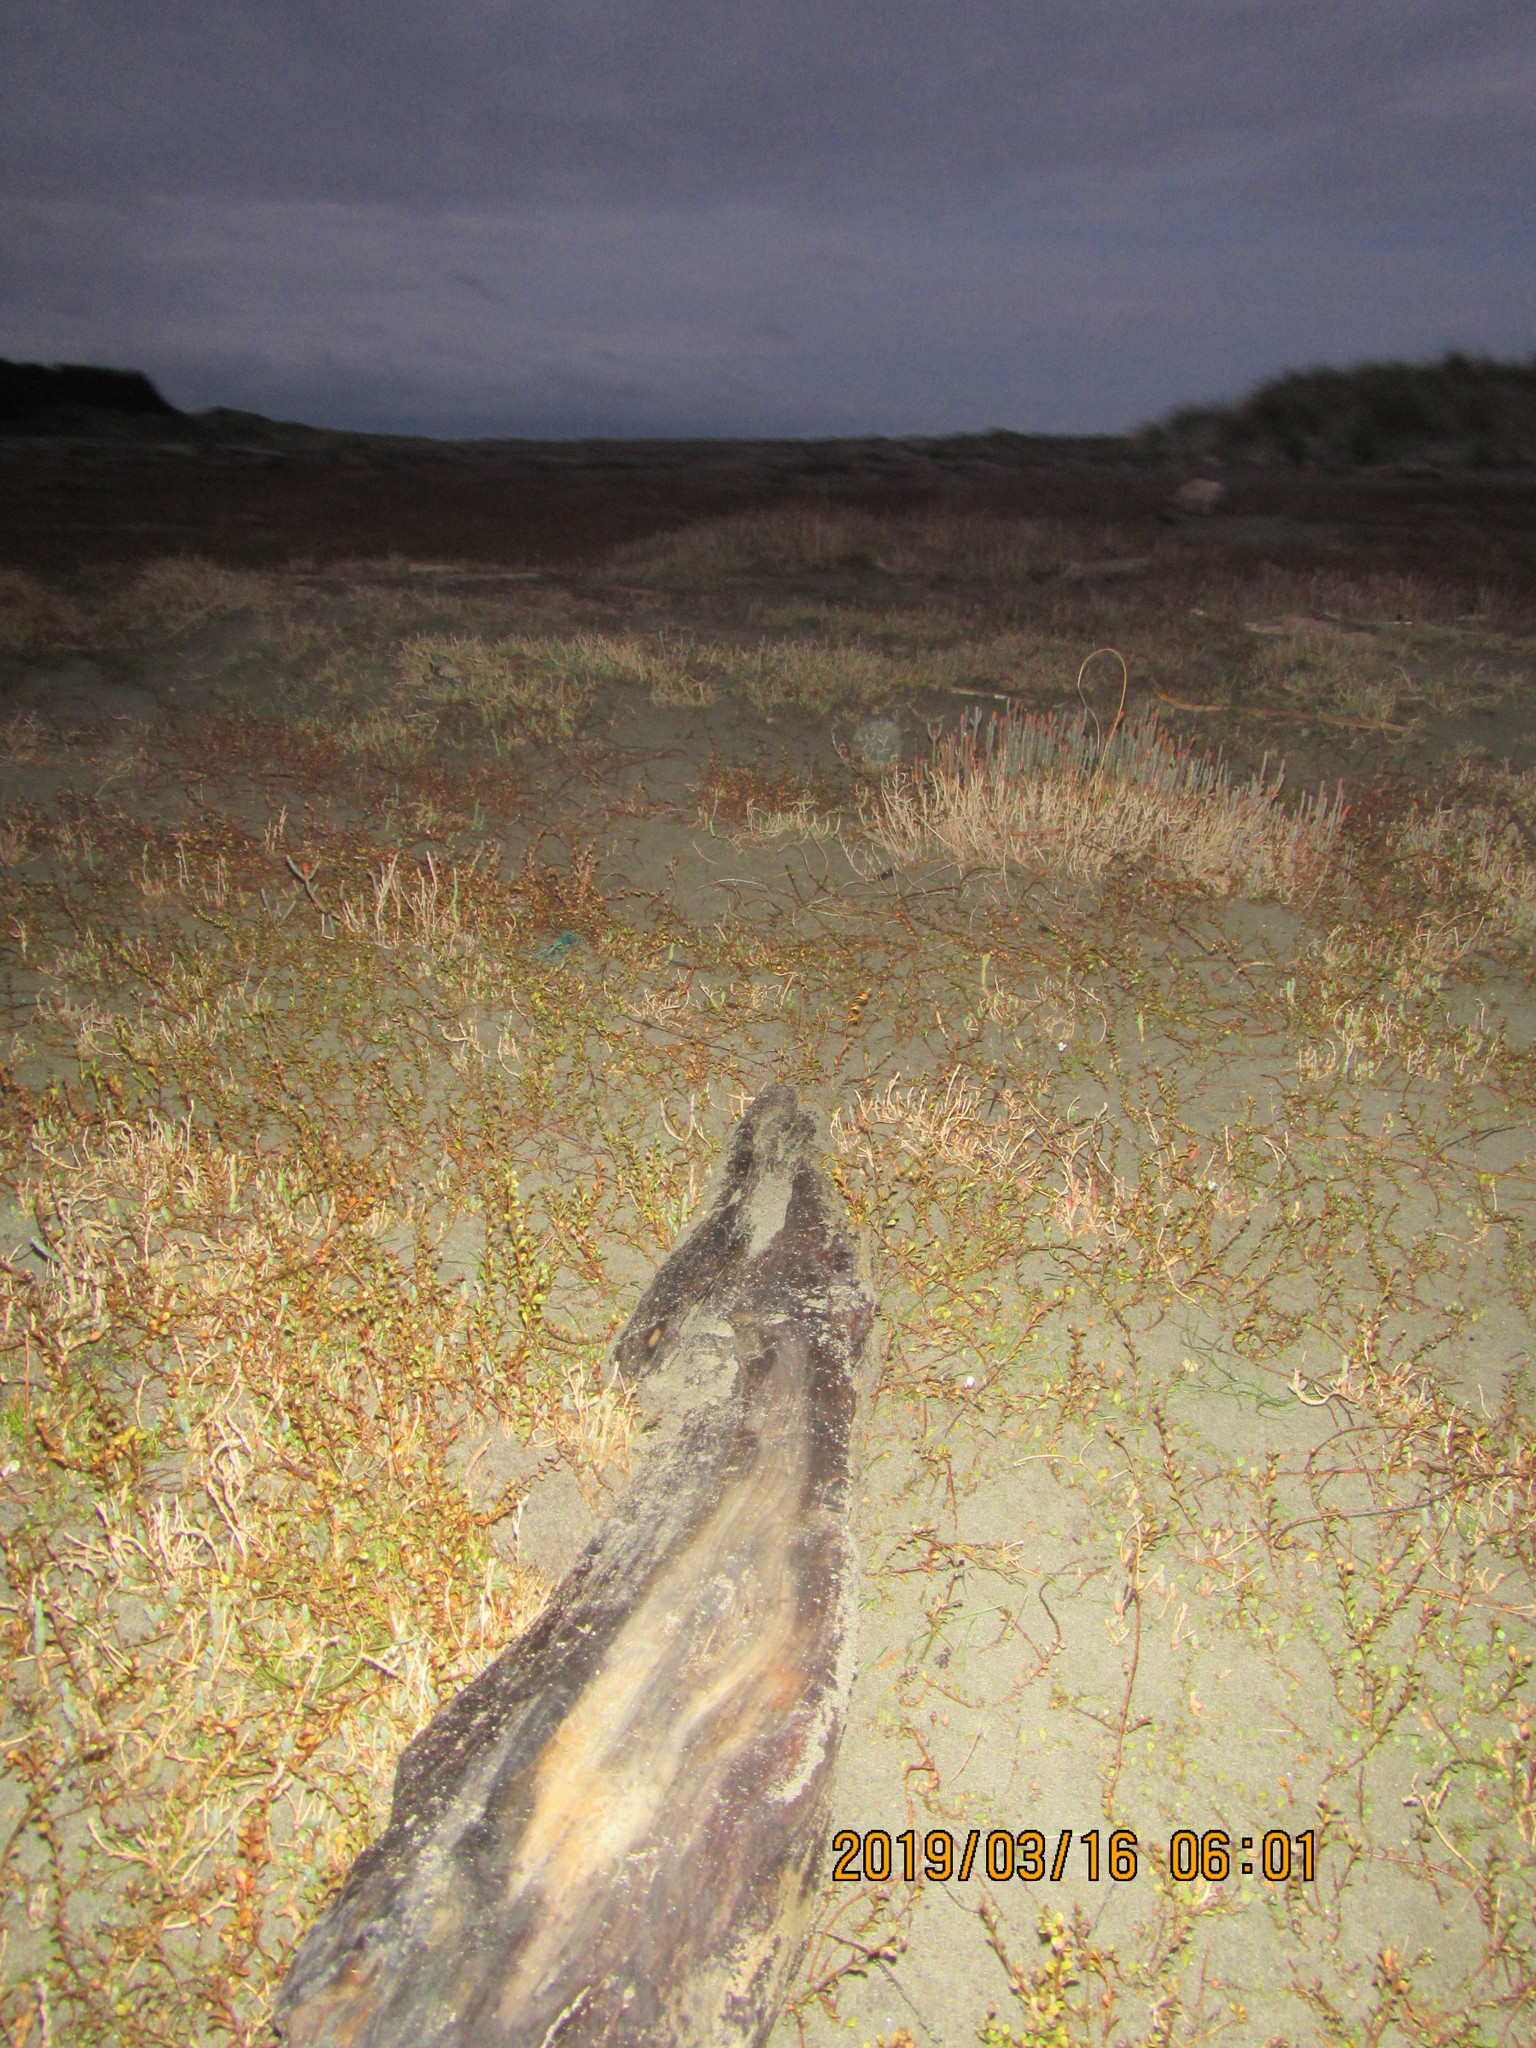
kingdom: Animalia
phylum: Arthropoda
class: Malacostraca
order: Decapoda
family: Varunidae
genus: Austrohelice
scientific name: Austrohelice crassa
